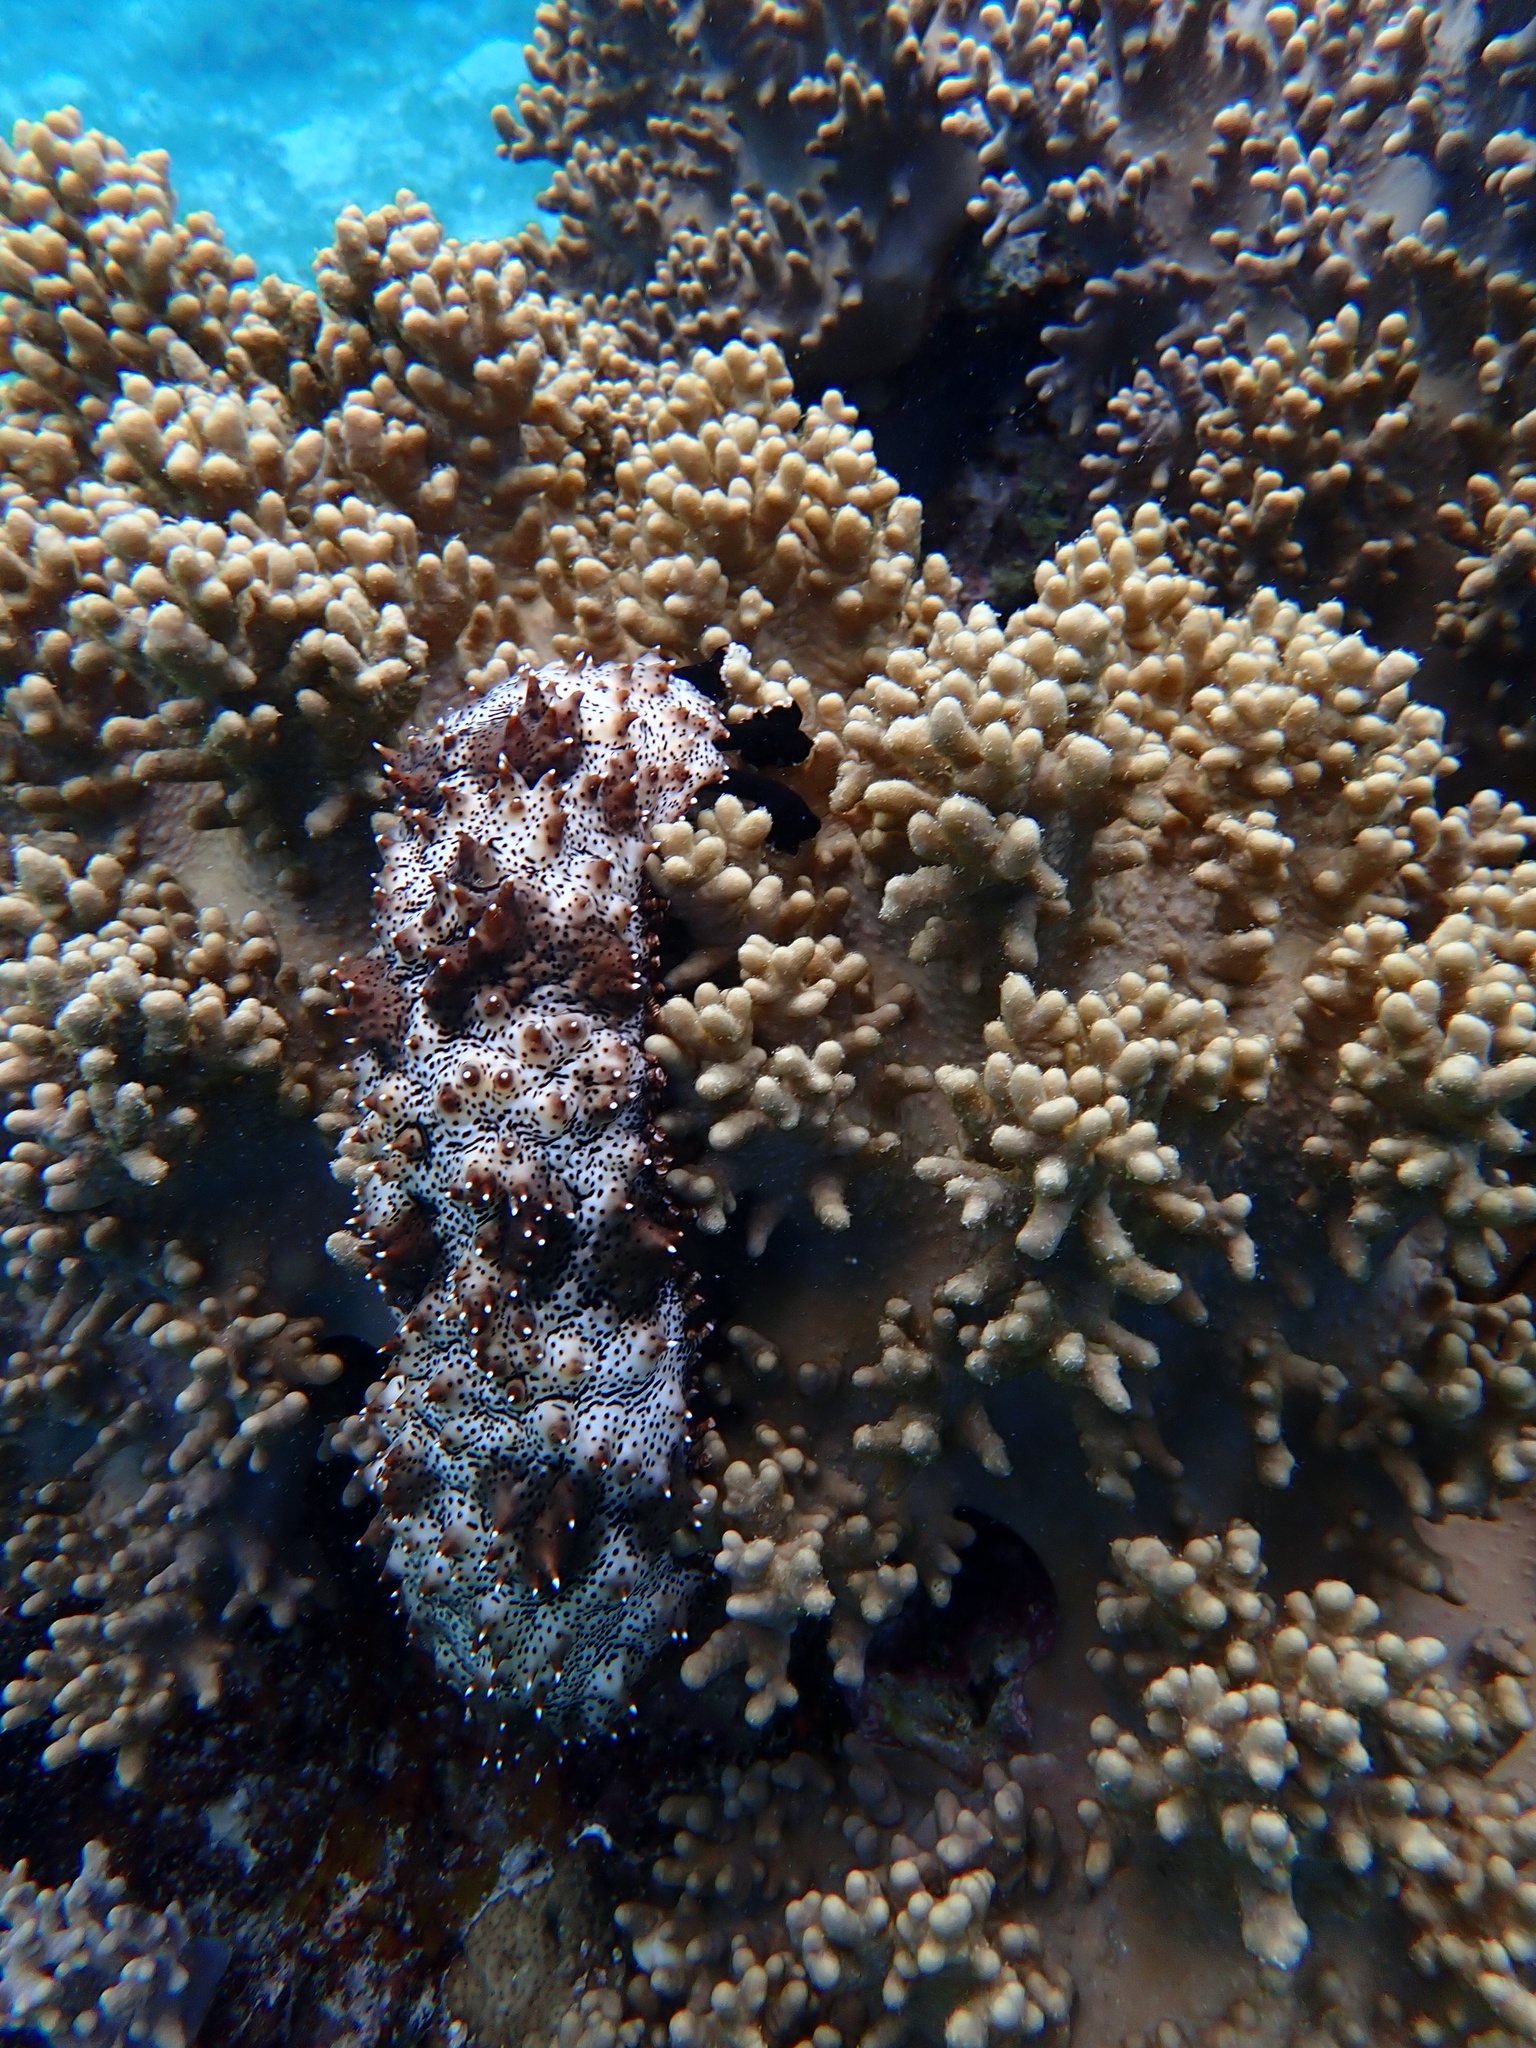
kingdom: Animalia
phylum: Echinodermata
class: Holothuroidea
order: Holothuriida
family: Holothuriidae
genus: Pearsonothuria
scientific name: Pearsonothuria graeffei
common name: Blackspotted sea cucumber
